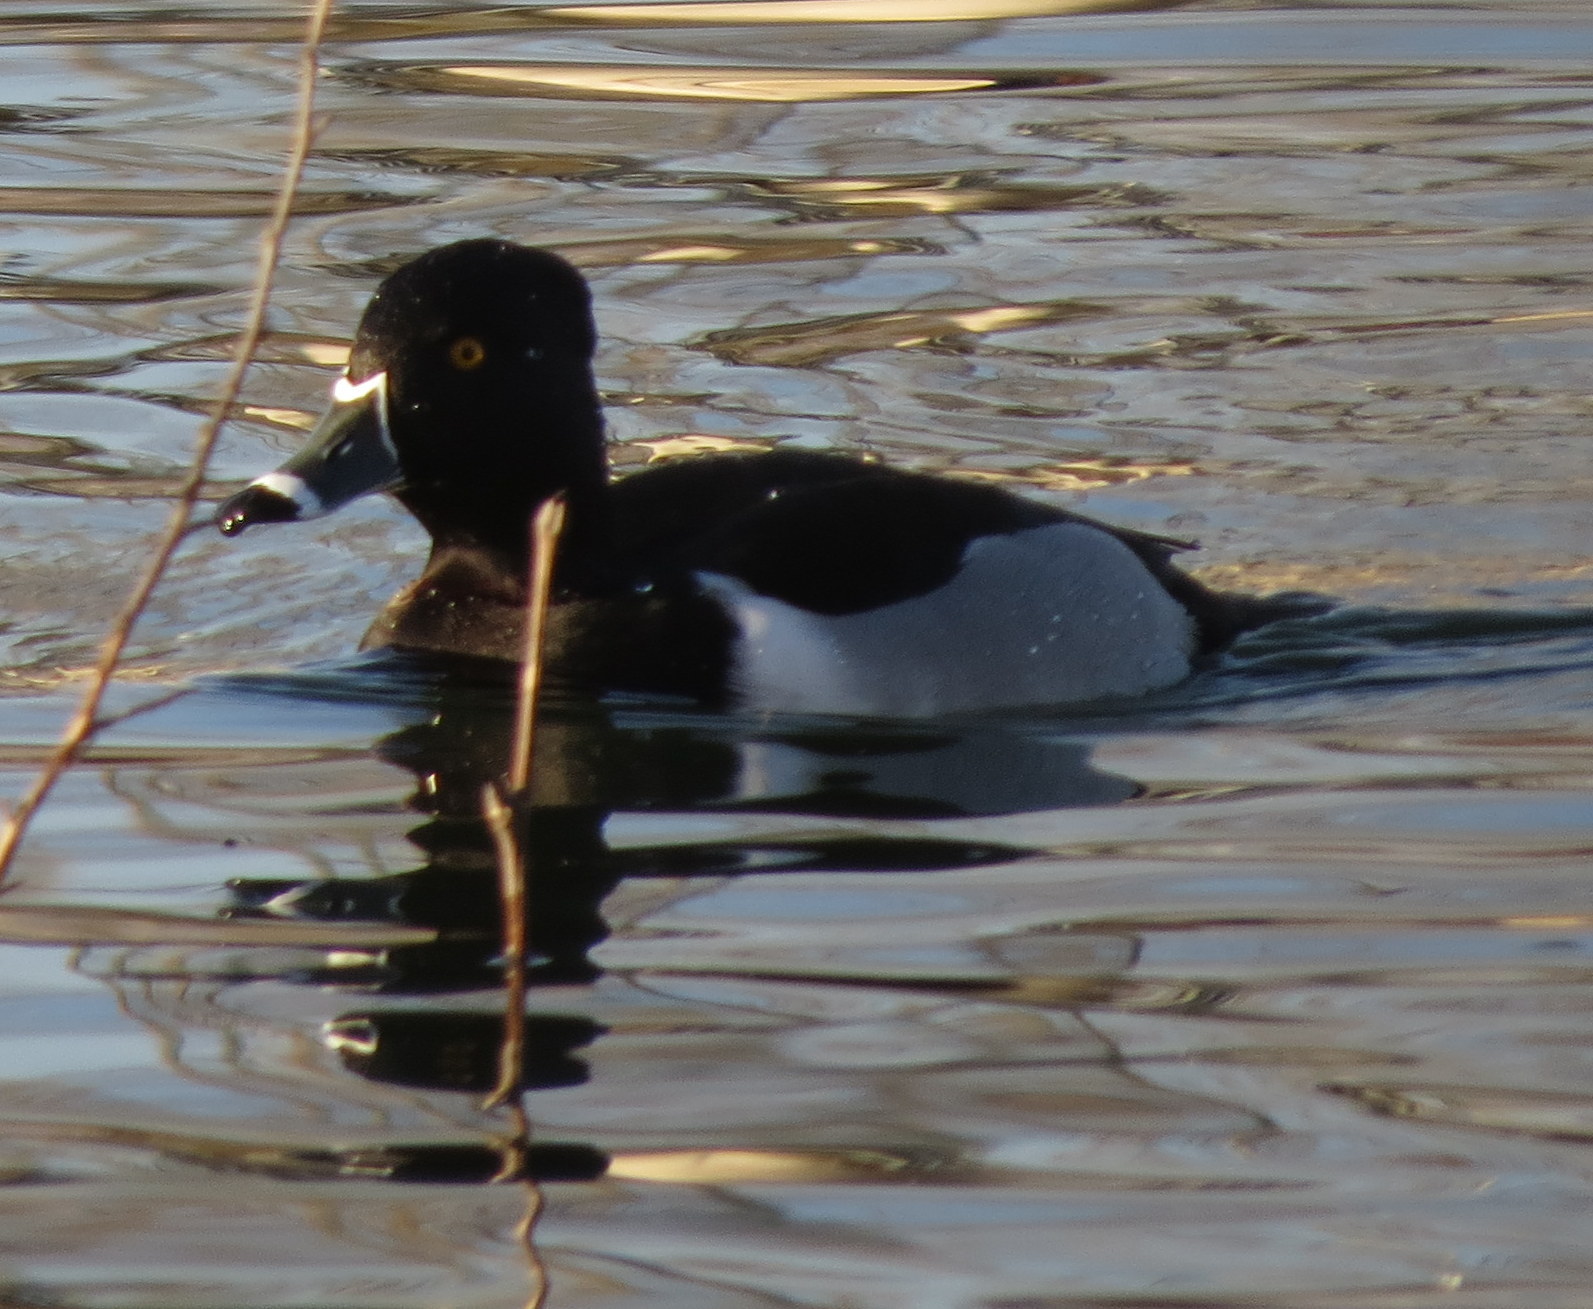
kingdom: Animalia
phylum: Chordata
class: Aves
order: Anseriformes
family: Anatidae
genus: Aythya
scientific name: Aythya collaris
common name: Ring-necked duck
